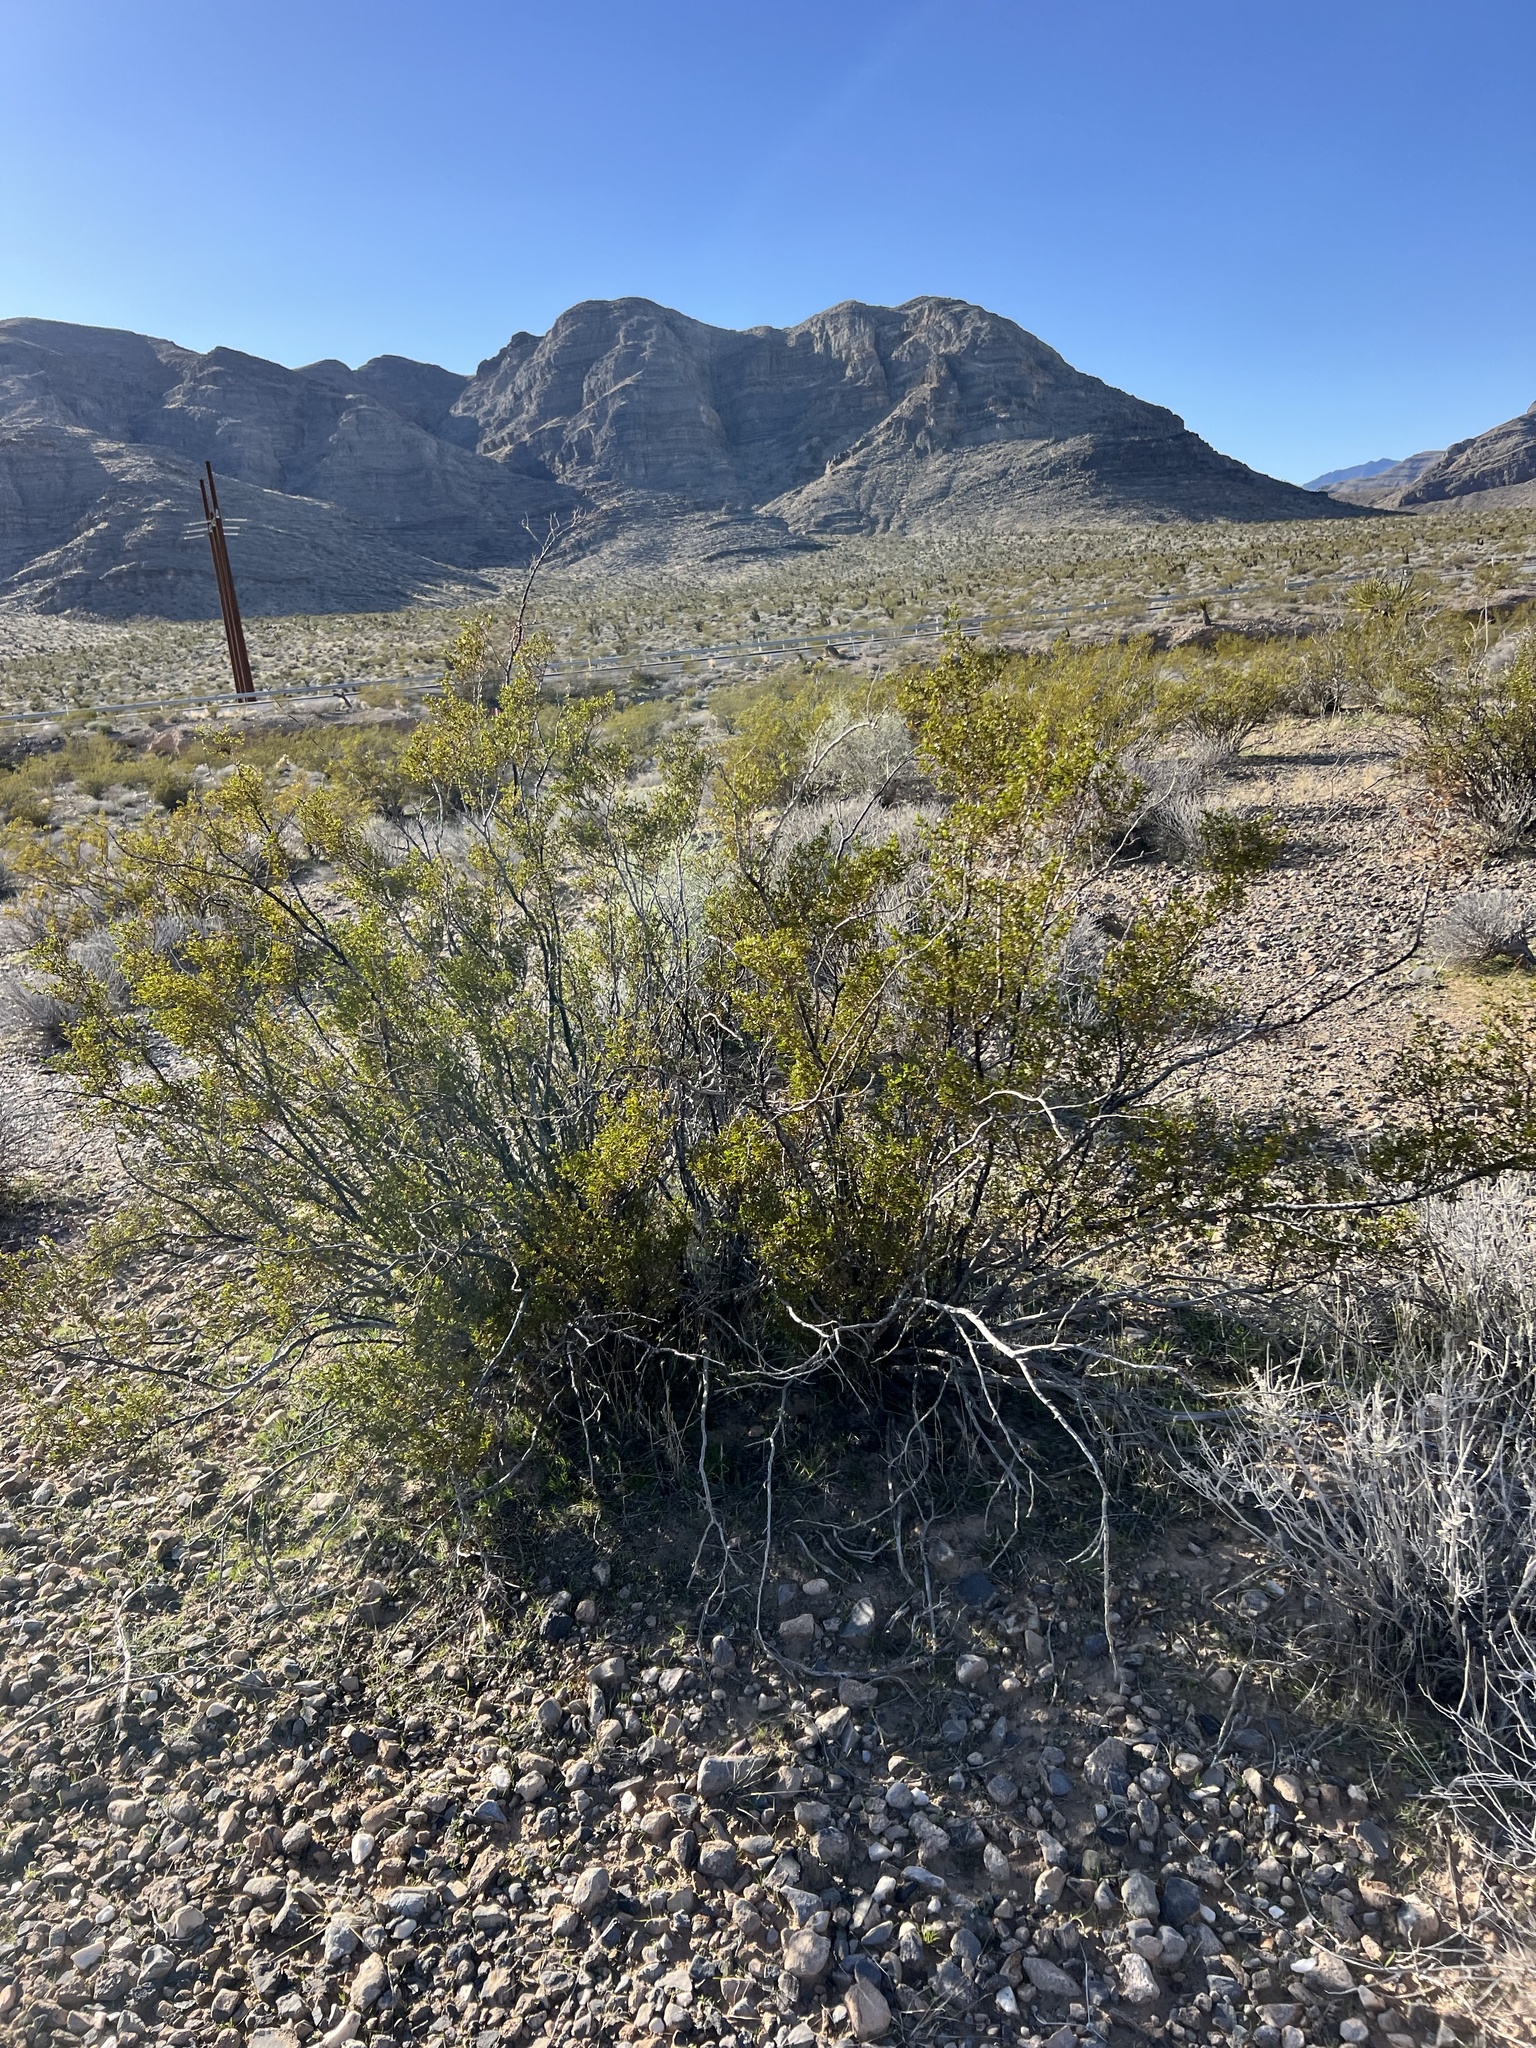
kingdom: Plantae
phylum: Tracheophyta
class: Magnoliopsida
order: Zygophyllales
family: Zygophyllaceae
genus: Larrea
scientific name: Larrea tridentata
